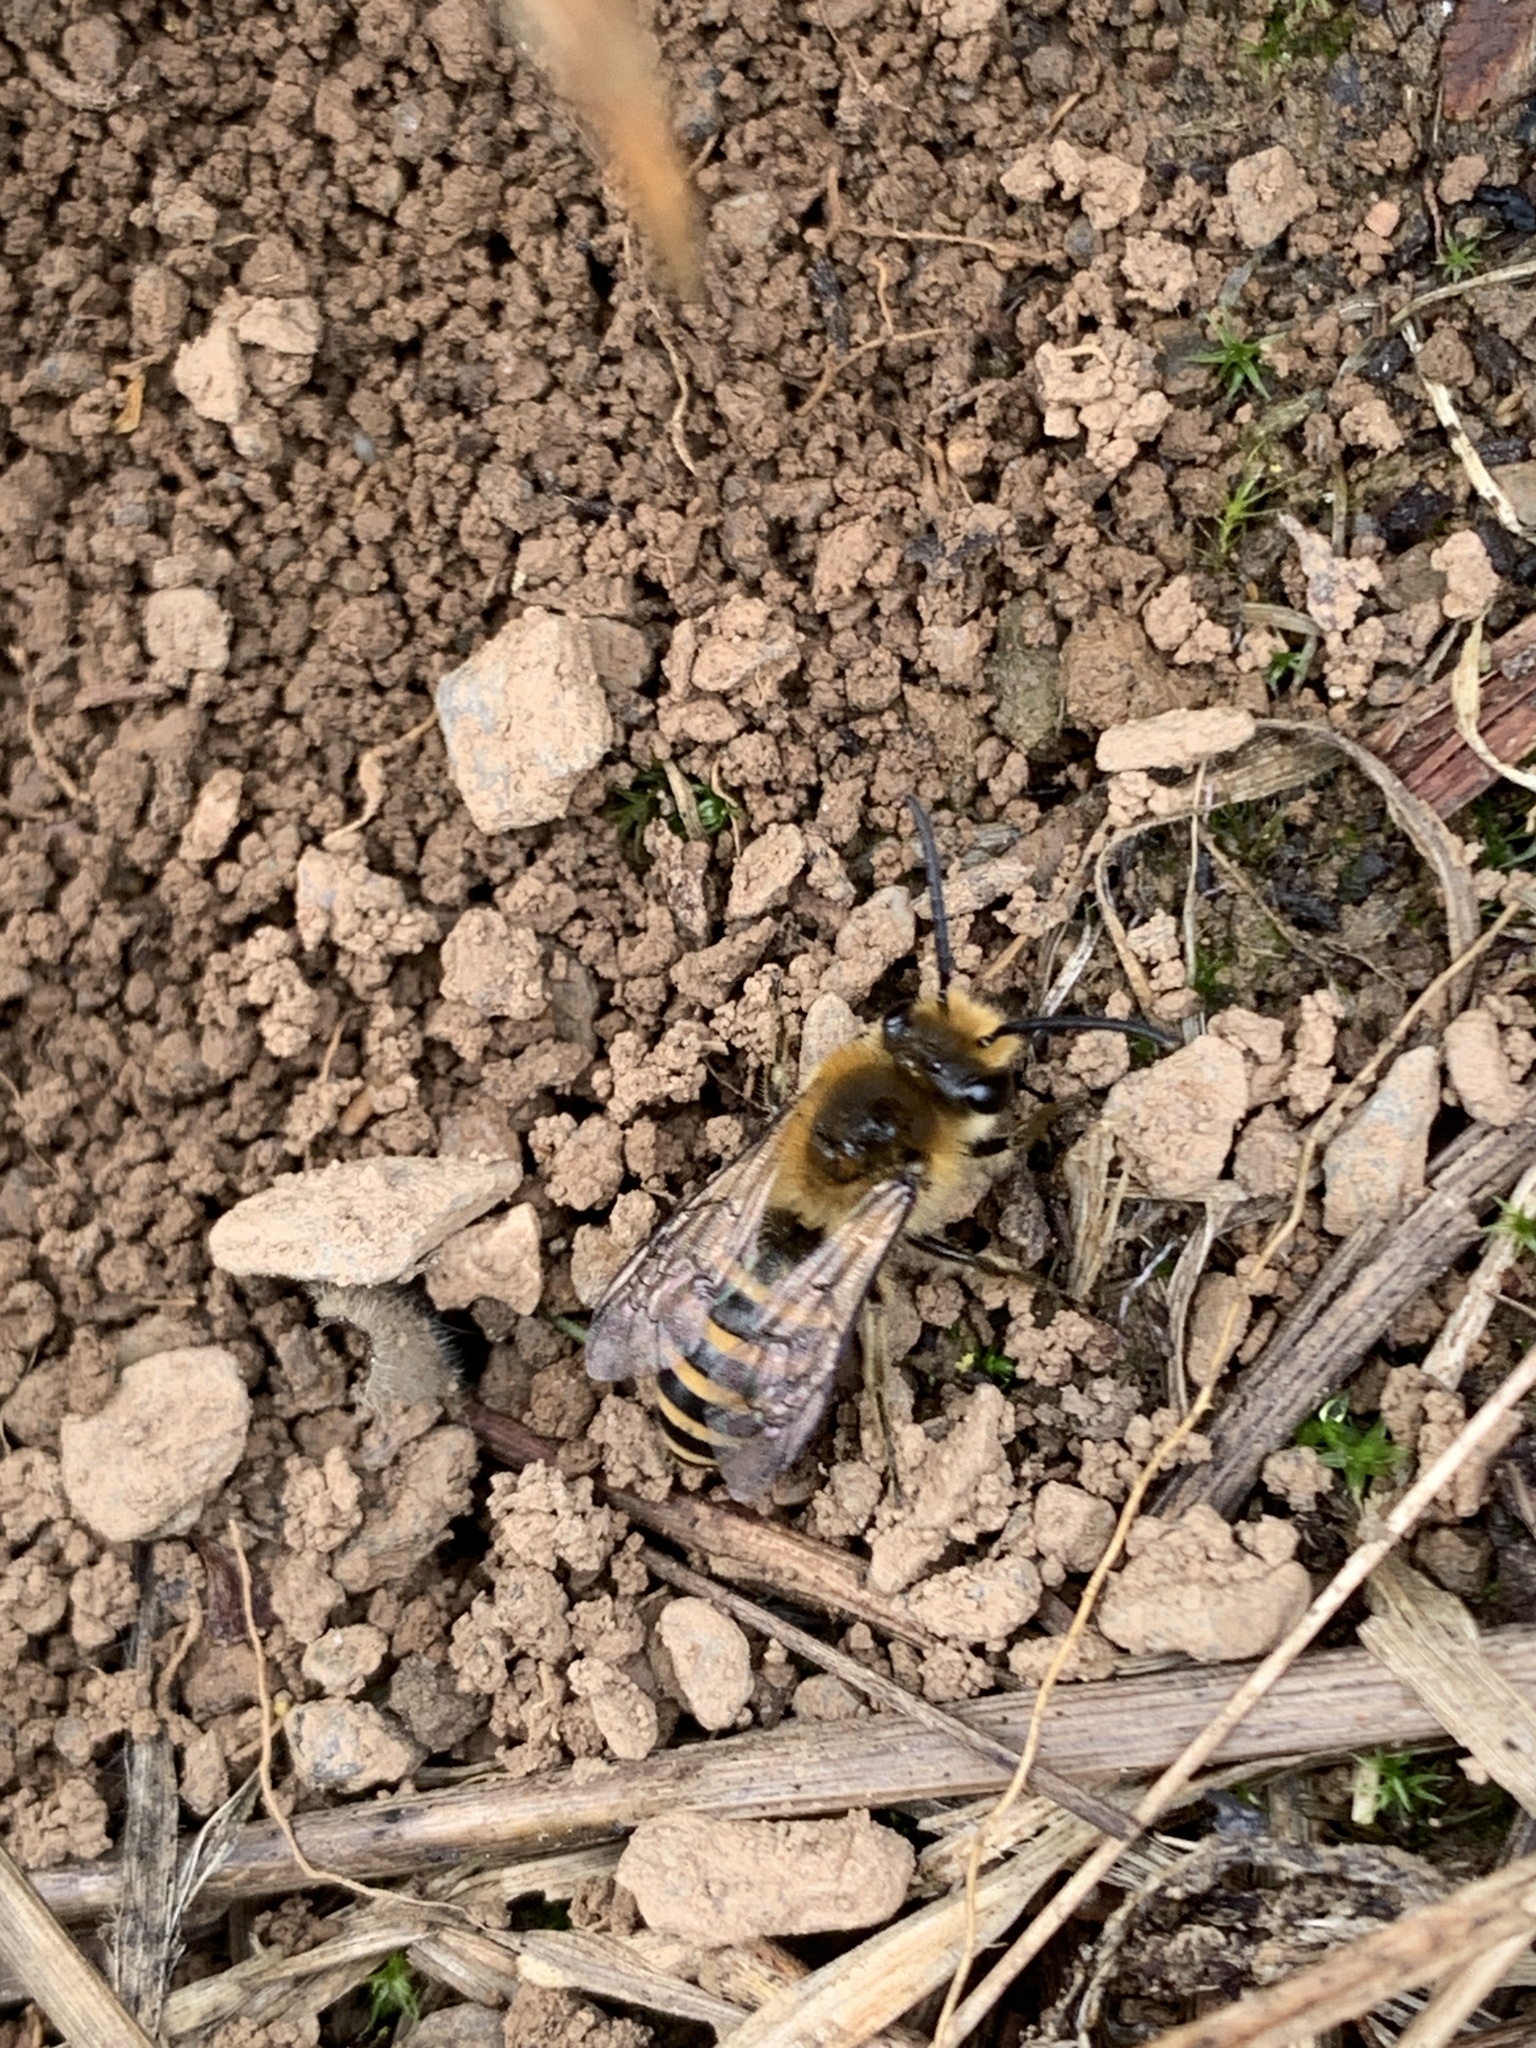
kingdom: Animalia
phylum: Arthropoda
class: Insecta
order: Hymenoptera
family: Colletidae
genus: Colletes
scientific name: Colletes hederae
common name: Ivy bee
